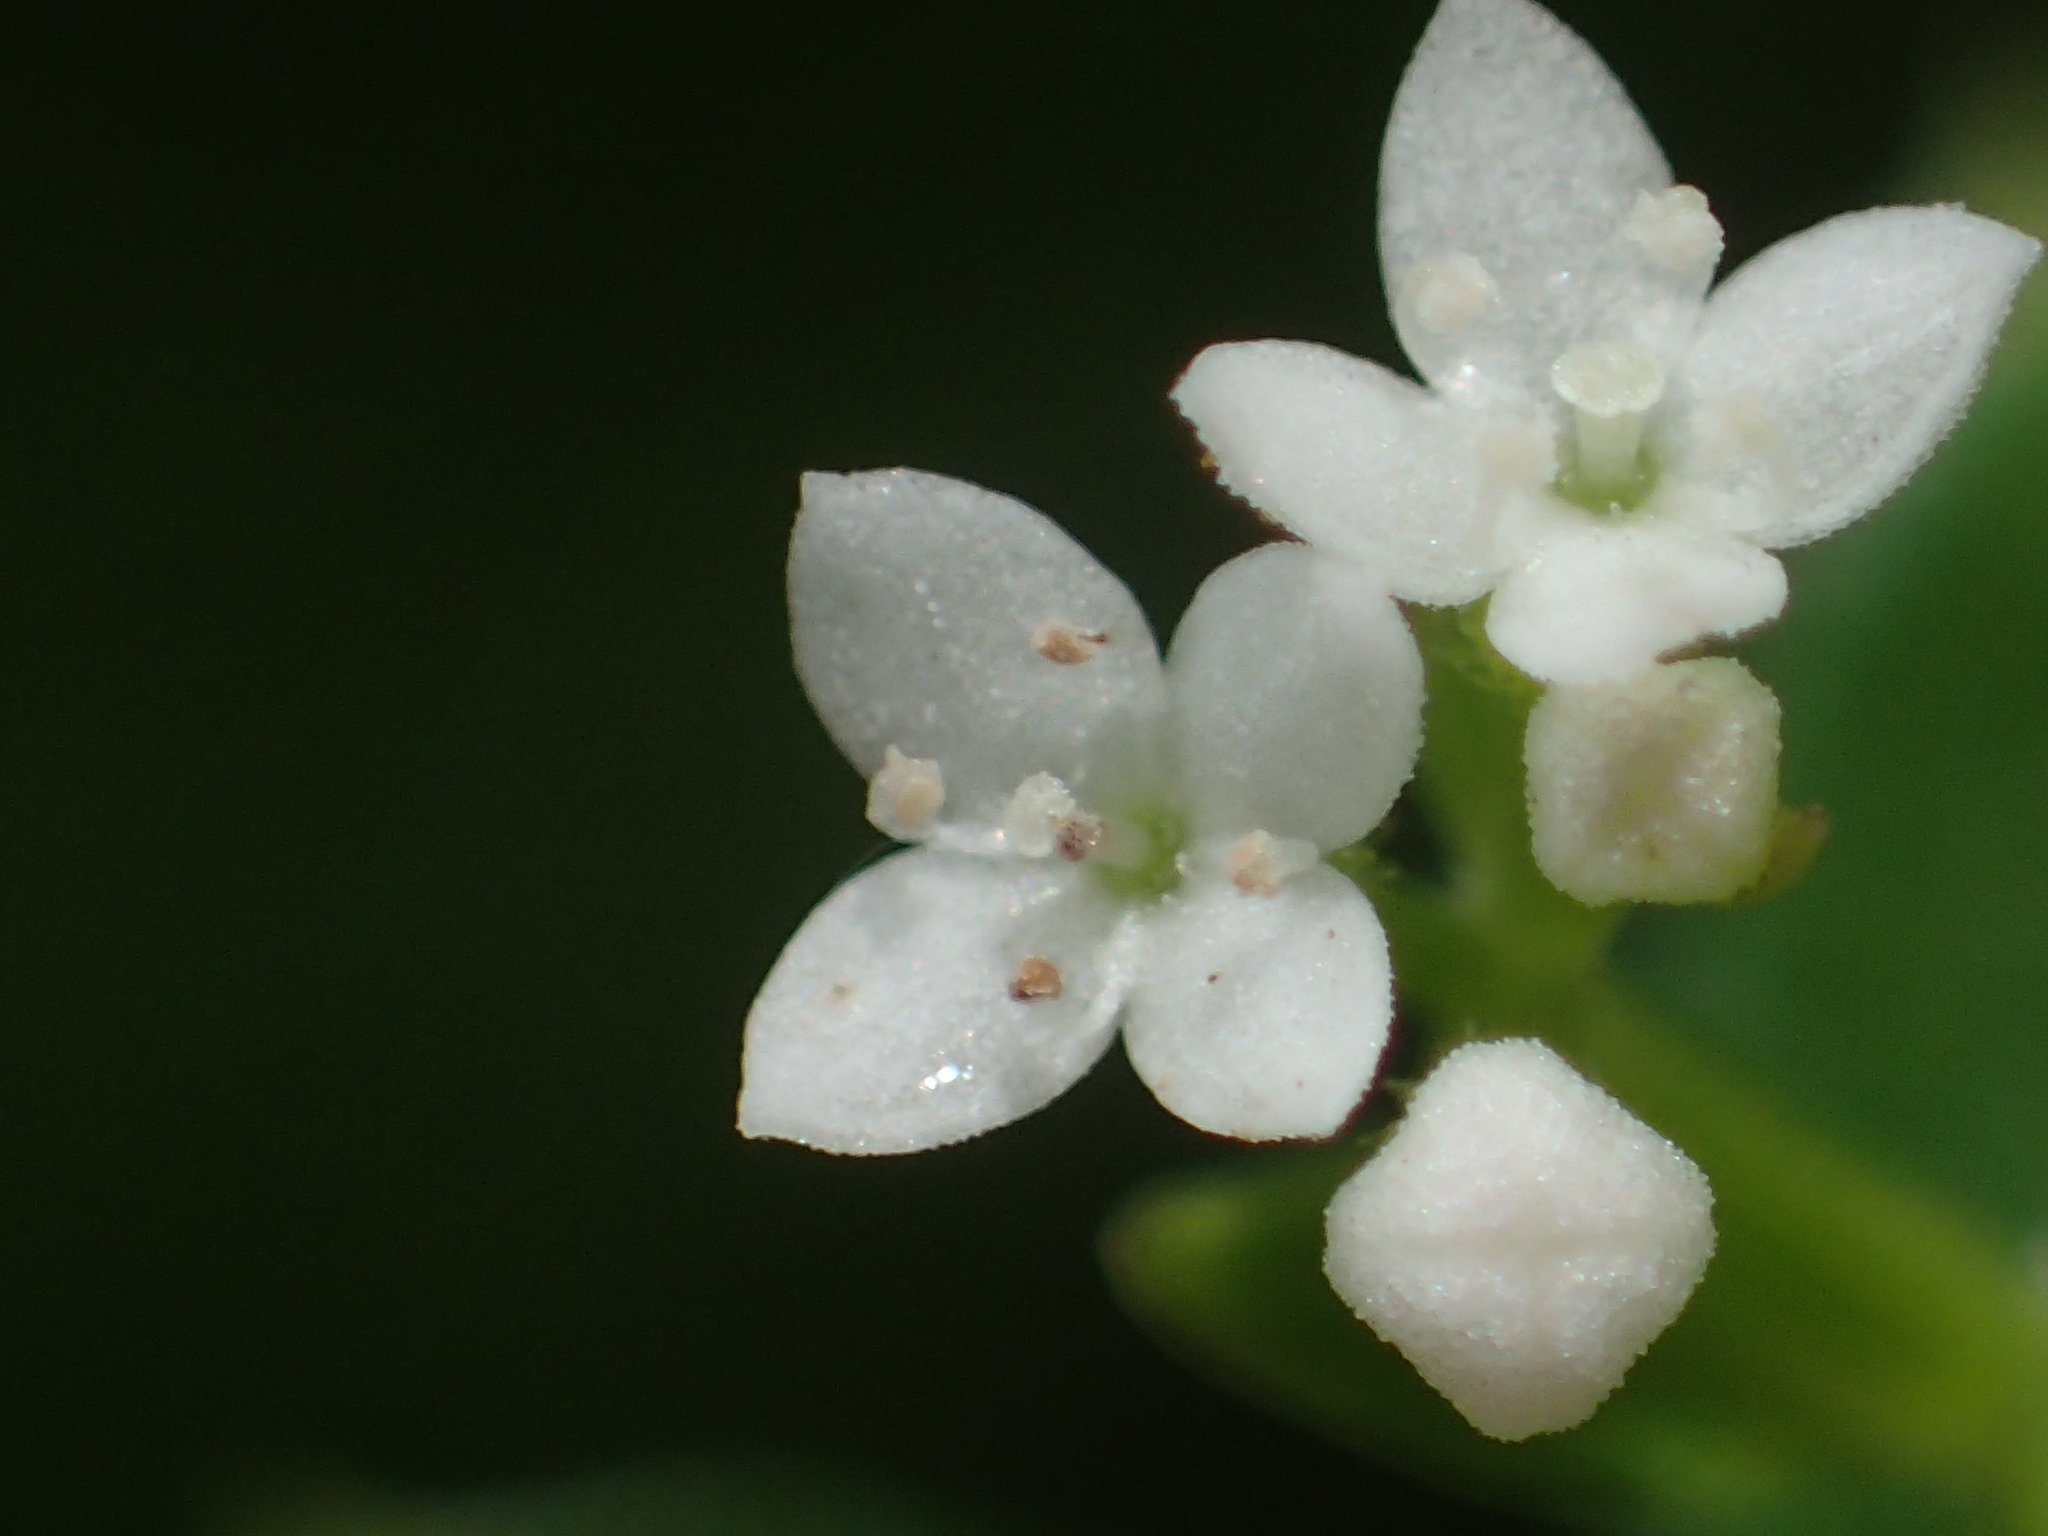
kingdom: Plantae
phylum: Tracheophyta
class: Magnoliopsida
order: Gentianales
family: Rubiaceae
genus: Galium
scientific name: Galium echinocarpum
